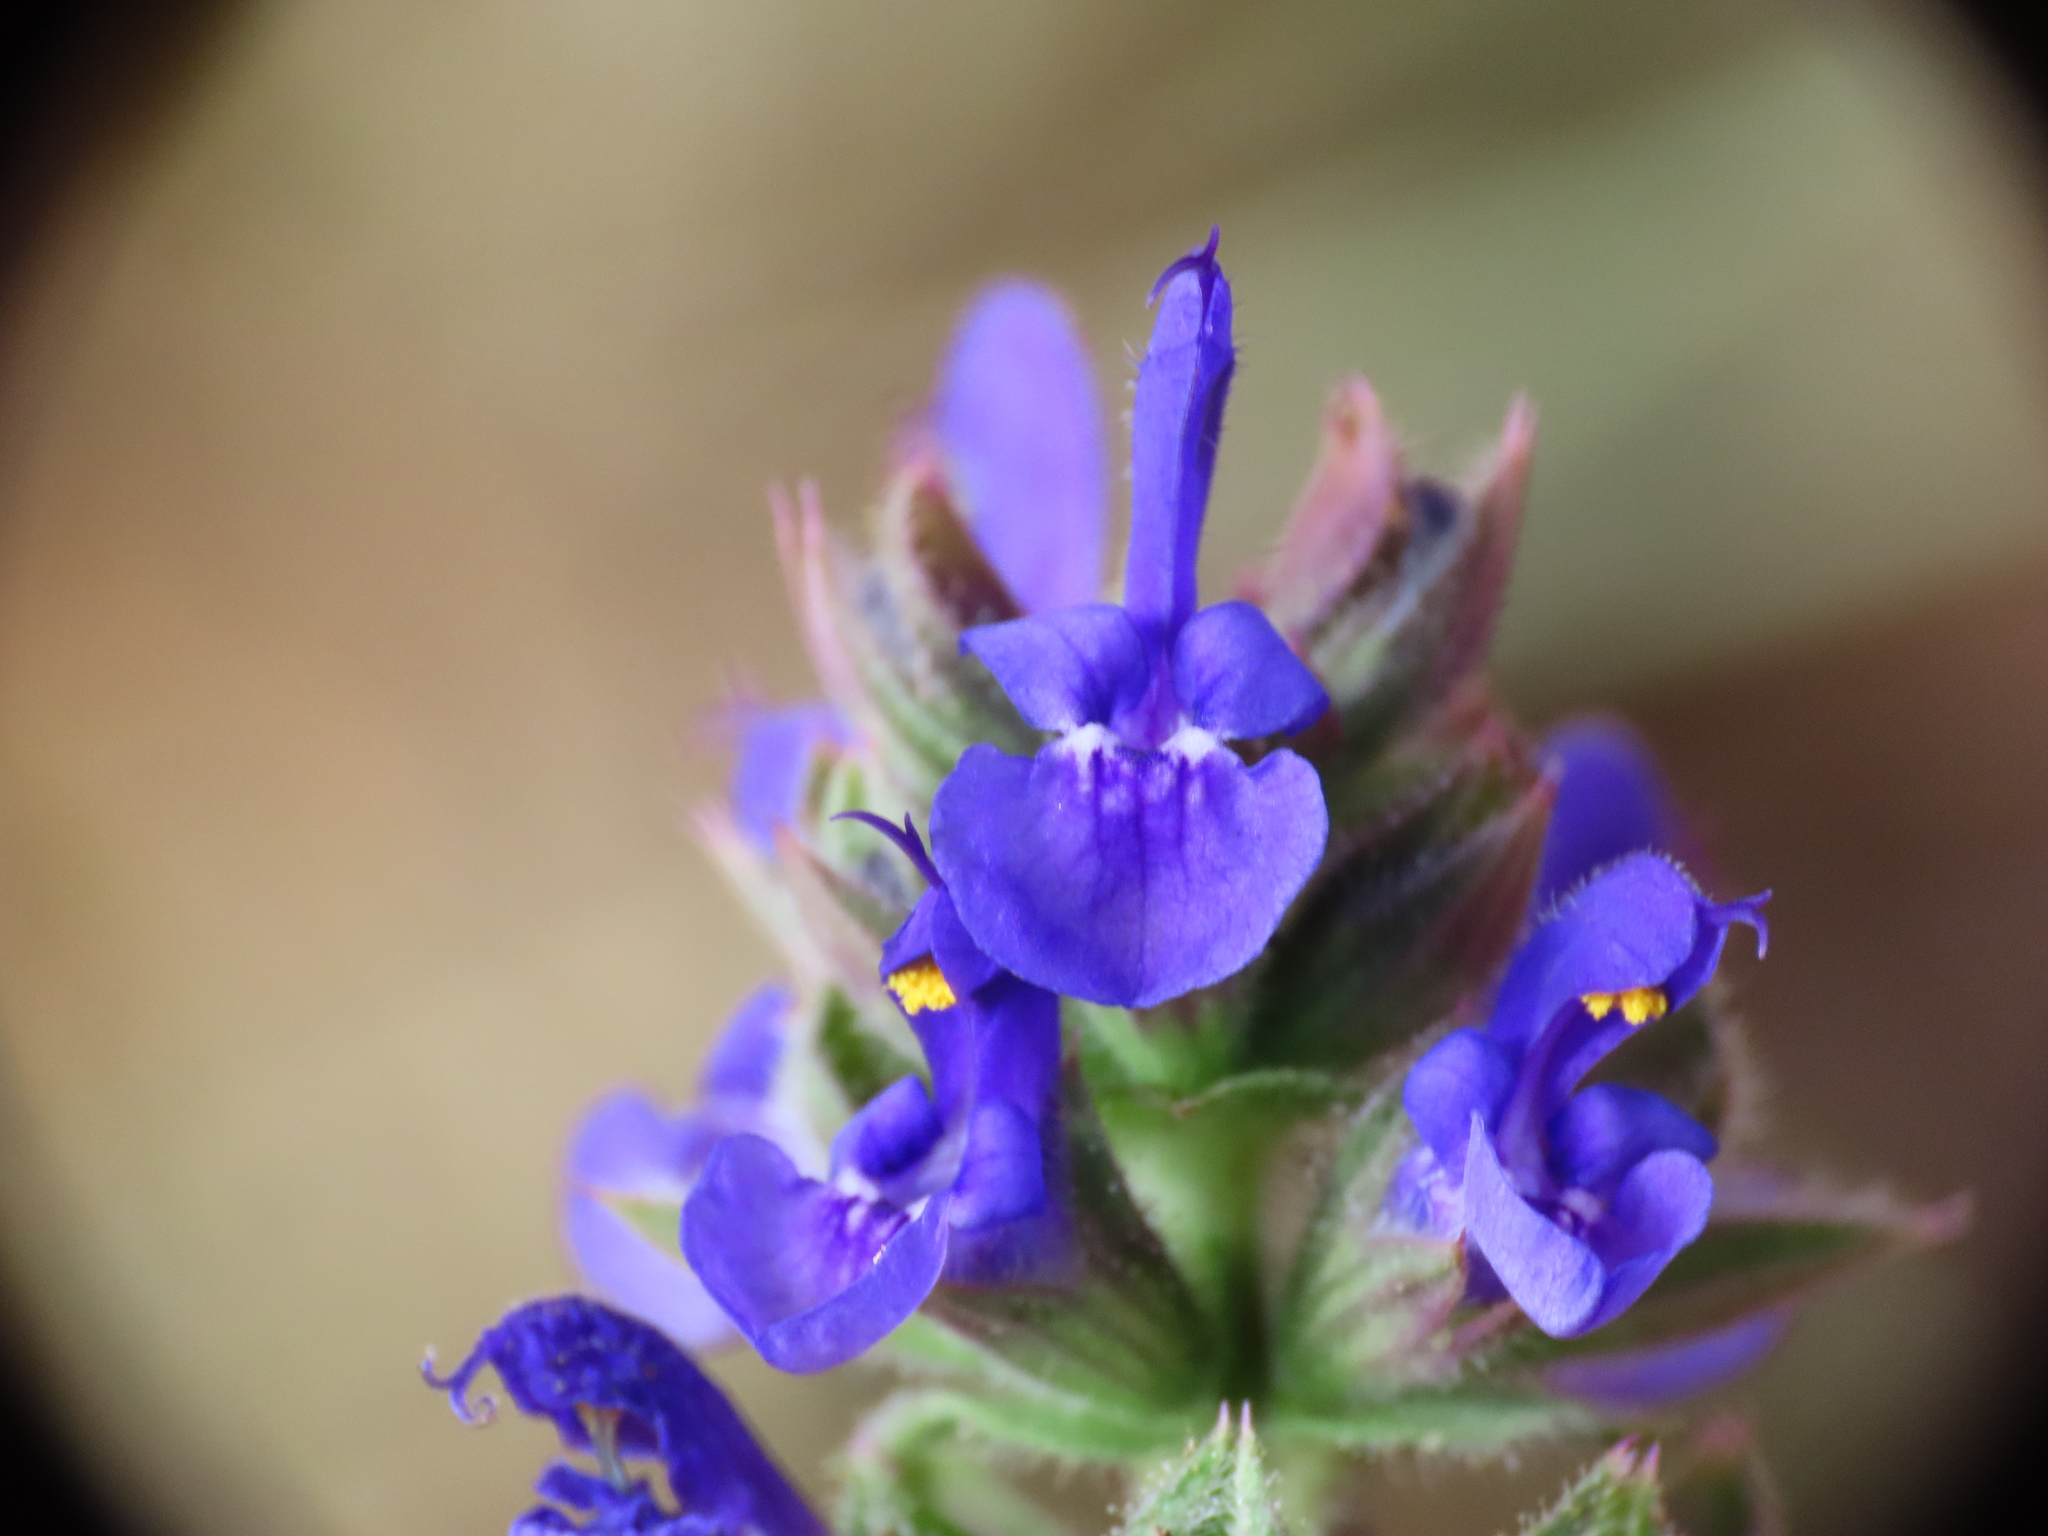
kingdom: Plantae
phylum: Tracheophyta
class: Magnoliopsida
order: Lamiales
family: Lamiaceae
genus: Salvia
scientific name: Salvia verbenaca
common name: Wild clary
